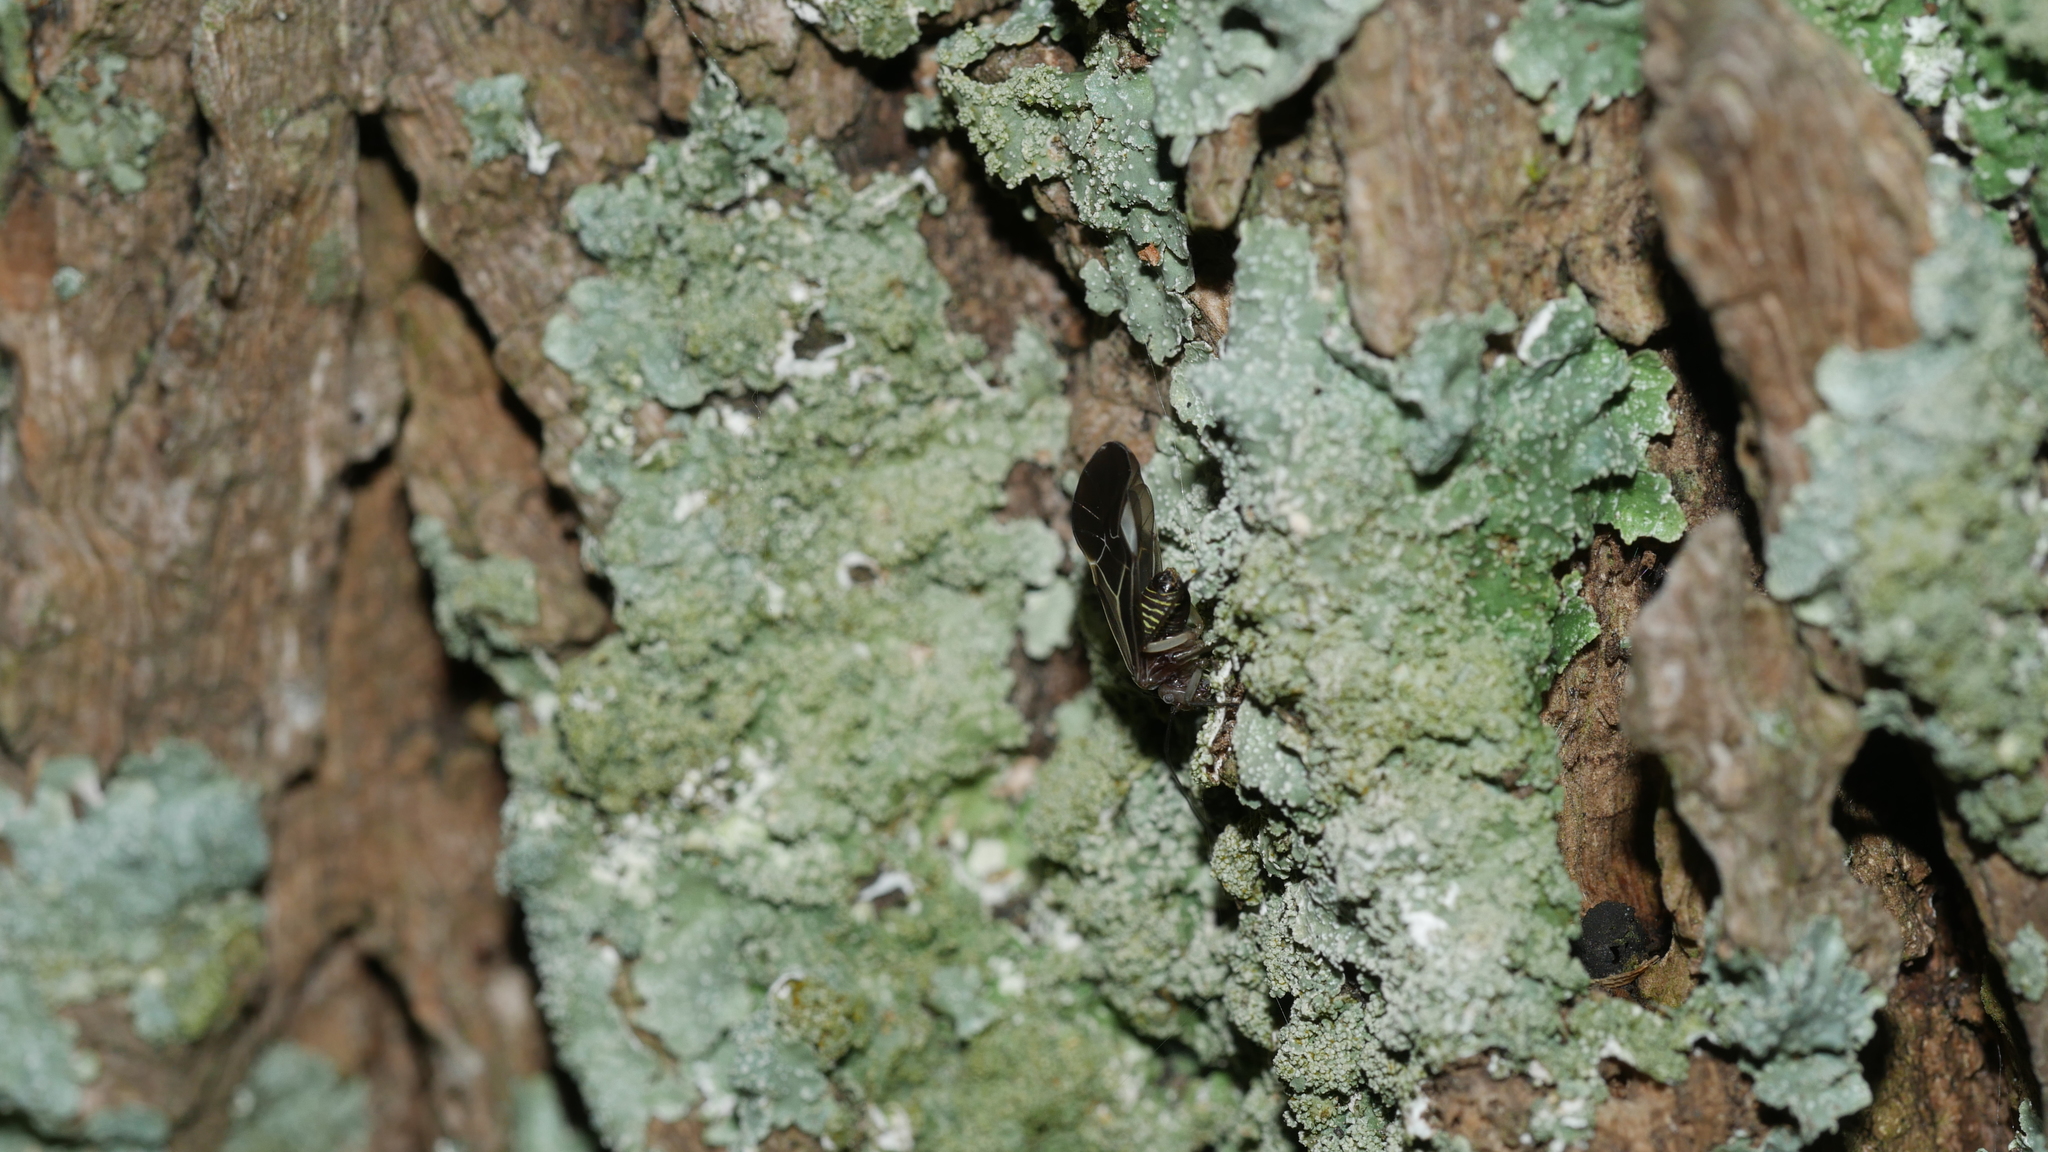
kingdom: Animalia
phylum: Arthropoda
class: Insecta
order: Psocodea
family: Psocidae
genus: Cerastipsocus
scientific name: Cerastipsocus venosus
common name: Tree cattle
